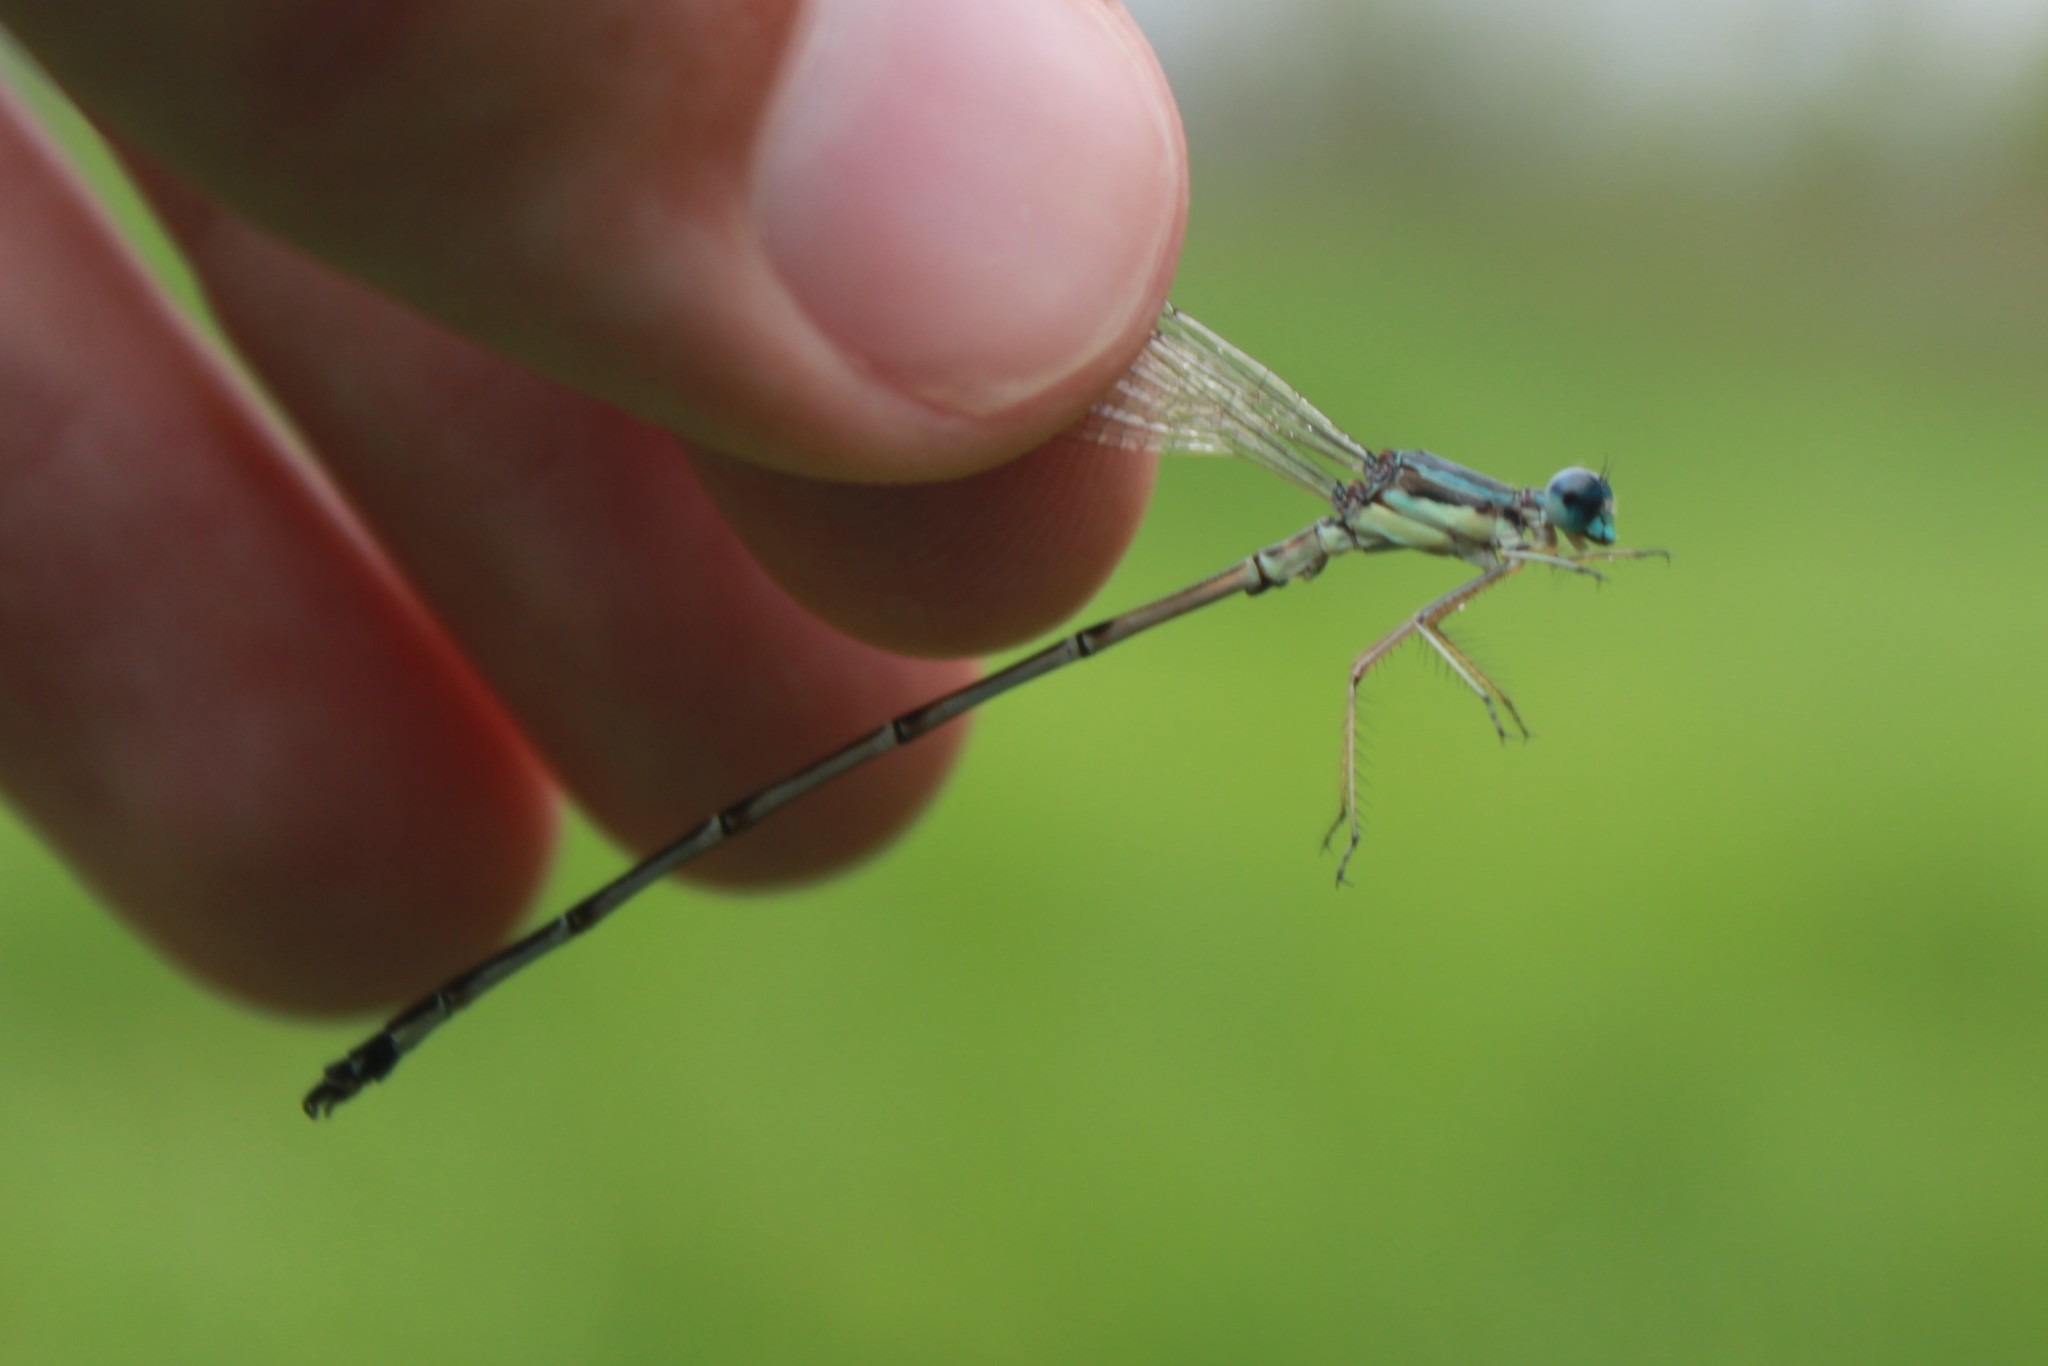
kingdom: Animalia
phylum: Arthropoda
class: Insecta
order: Odonata
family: Lestidae
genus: Lestes
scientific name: Lestes rectangularis
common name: Slender spreadwing
